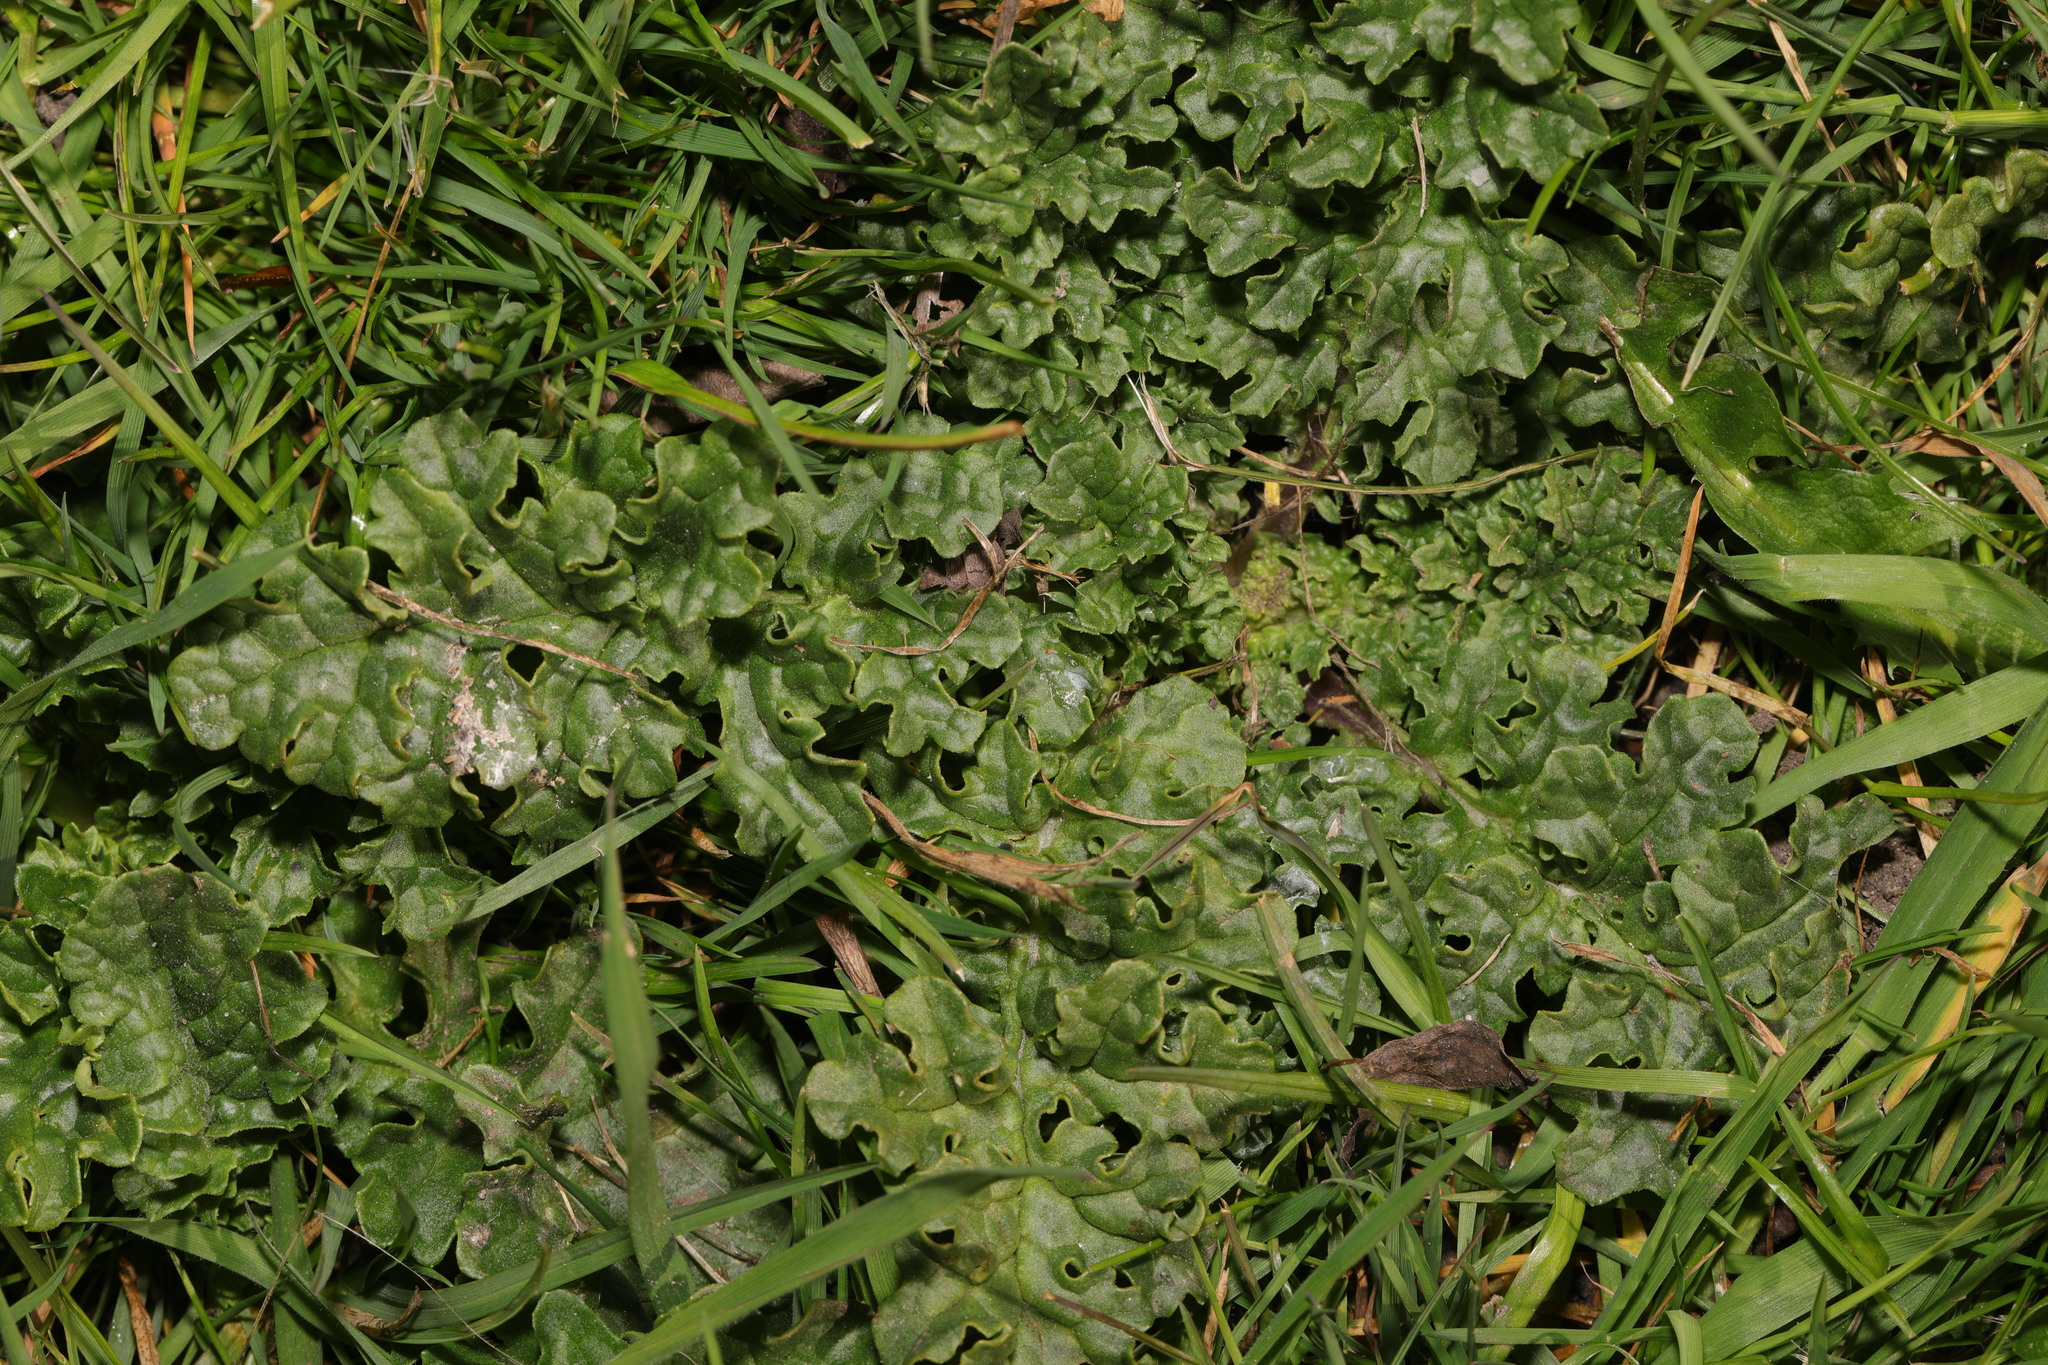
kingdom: Plantae
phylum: Tracheophyta
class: Magnoliopsida
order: Asterales
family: Asteraceae
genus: Jacobaea
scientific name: Jacobaea vulgaris
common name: Stinking willie
